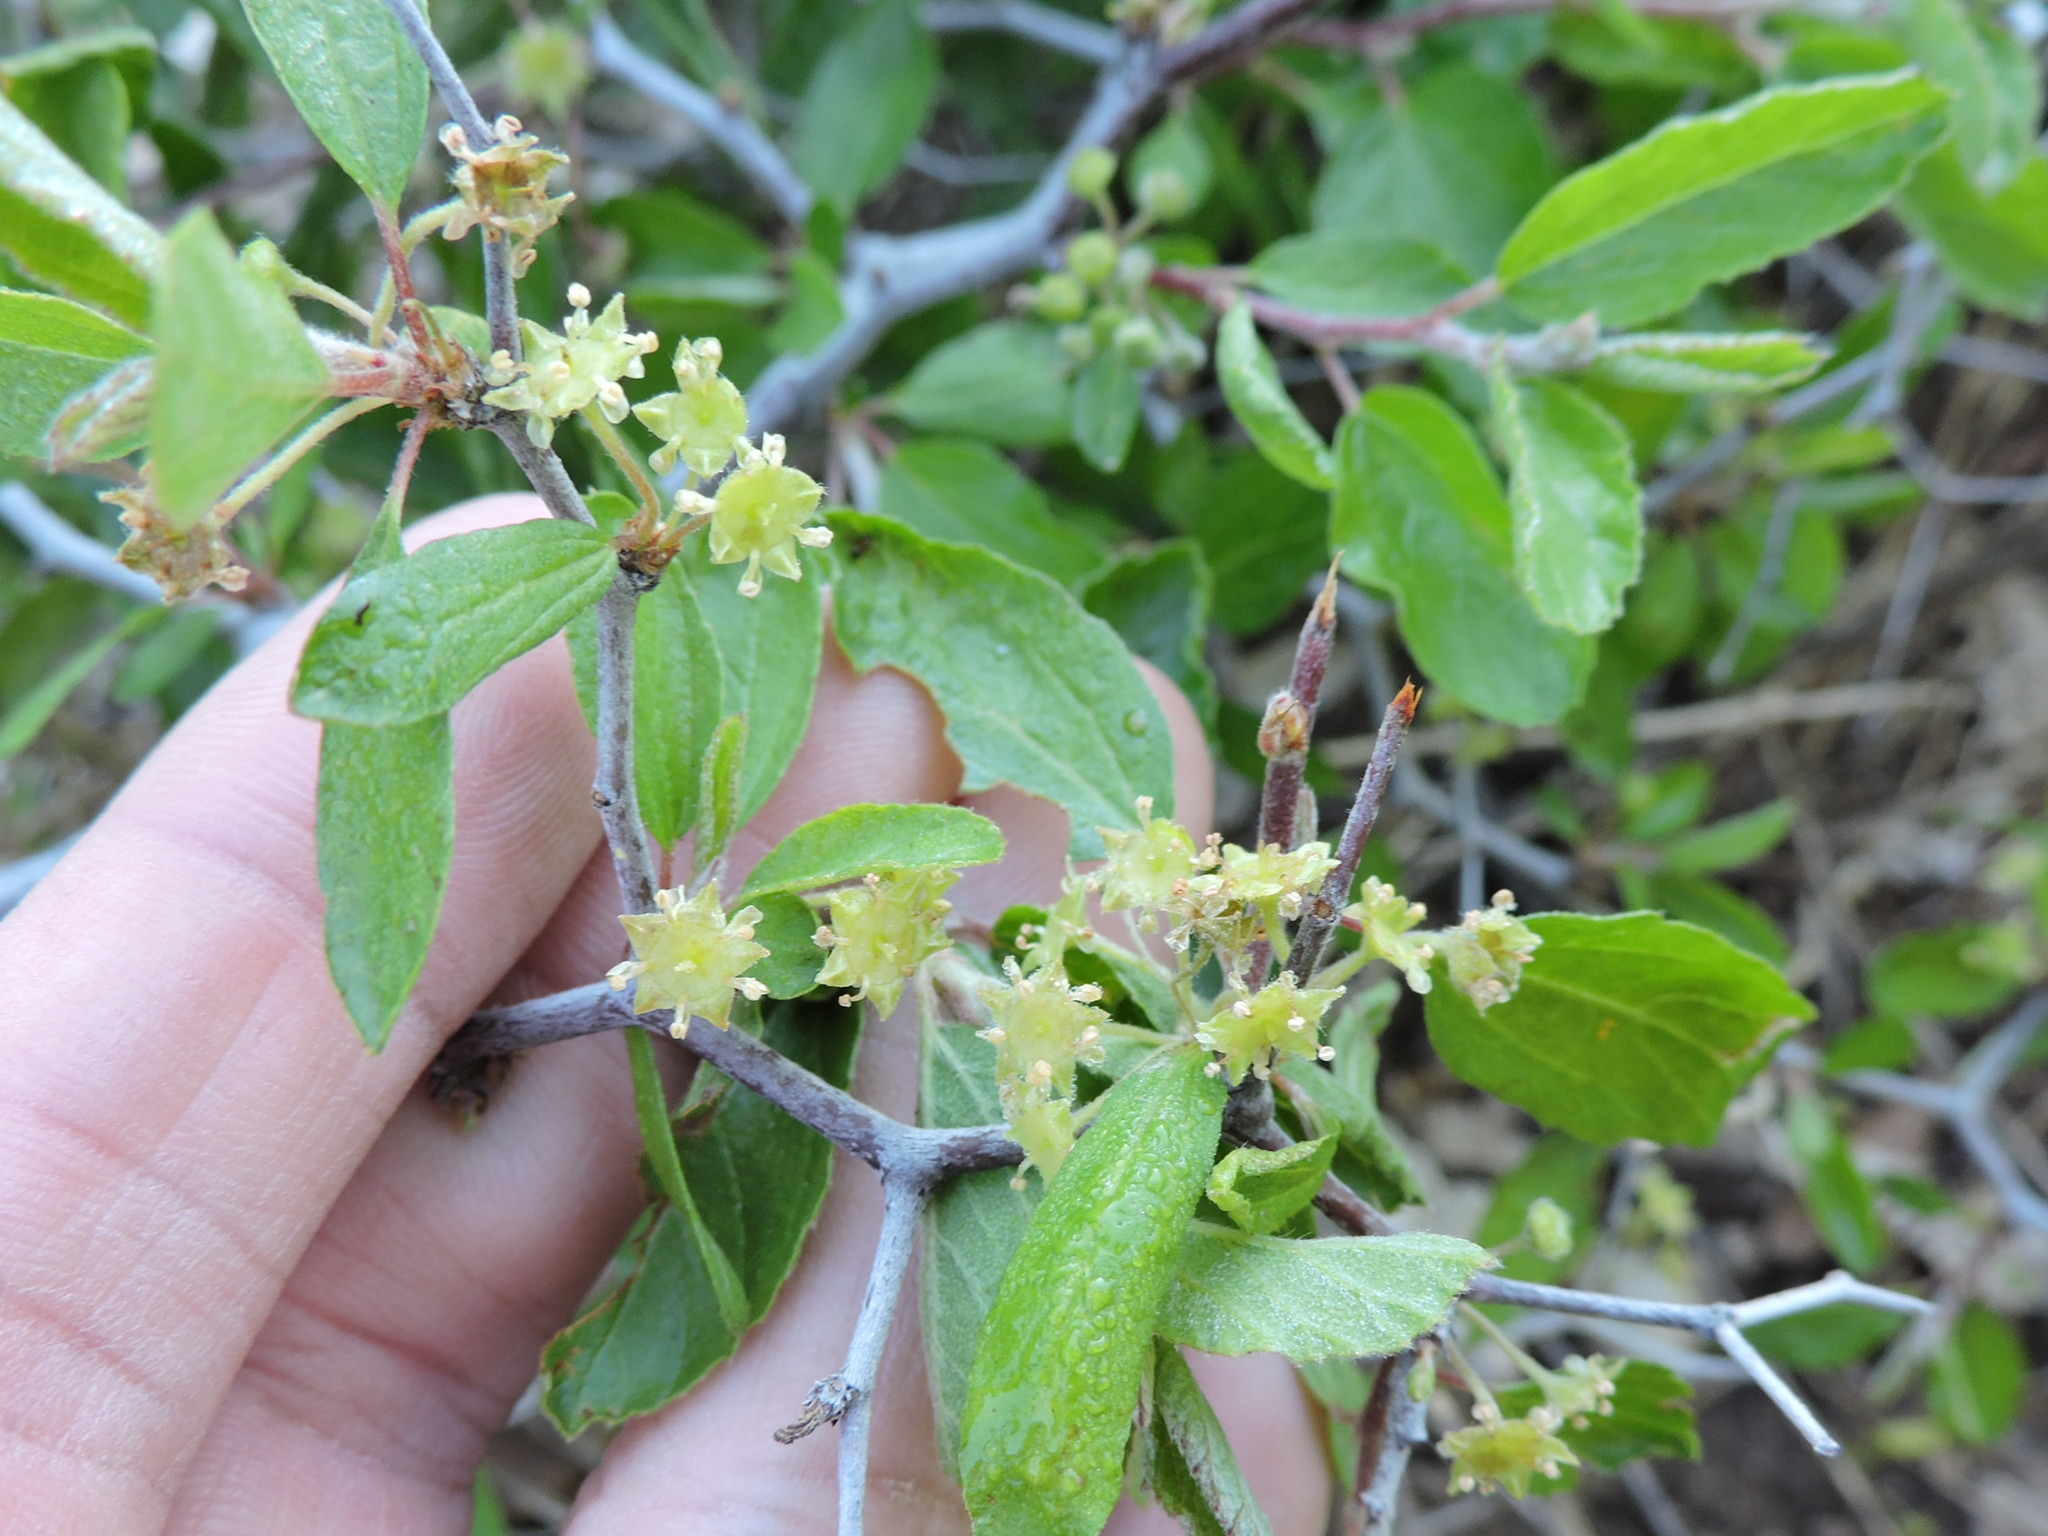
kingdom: Plantae
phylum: Tracheophyta
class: Magnoliopsida
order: Rosales
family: Rhamnaceae
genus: Colubrina
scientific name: Colubrina texensis
